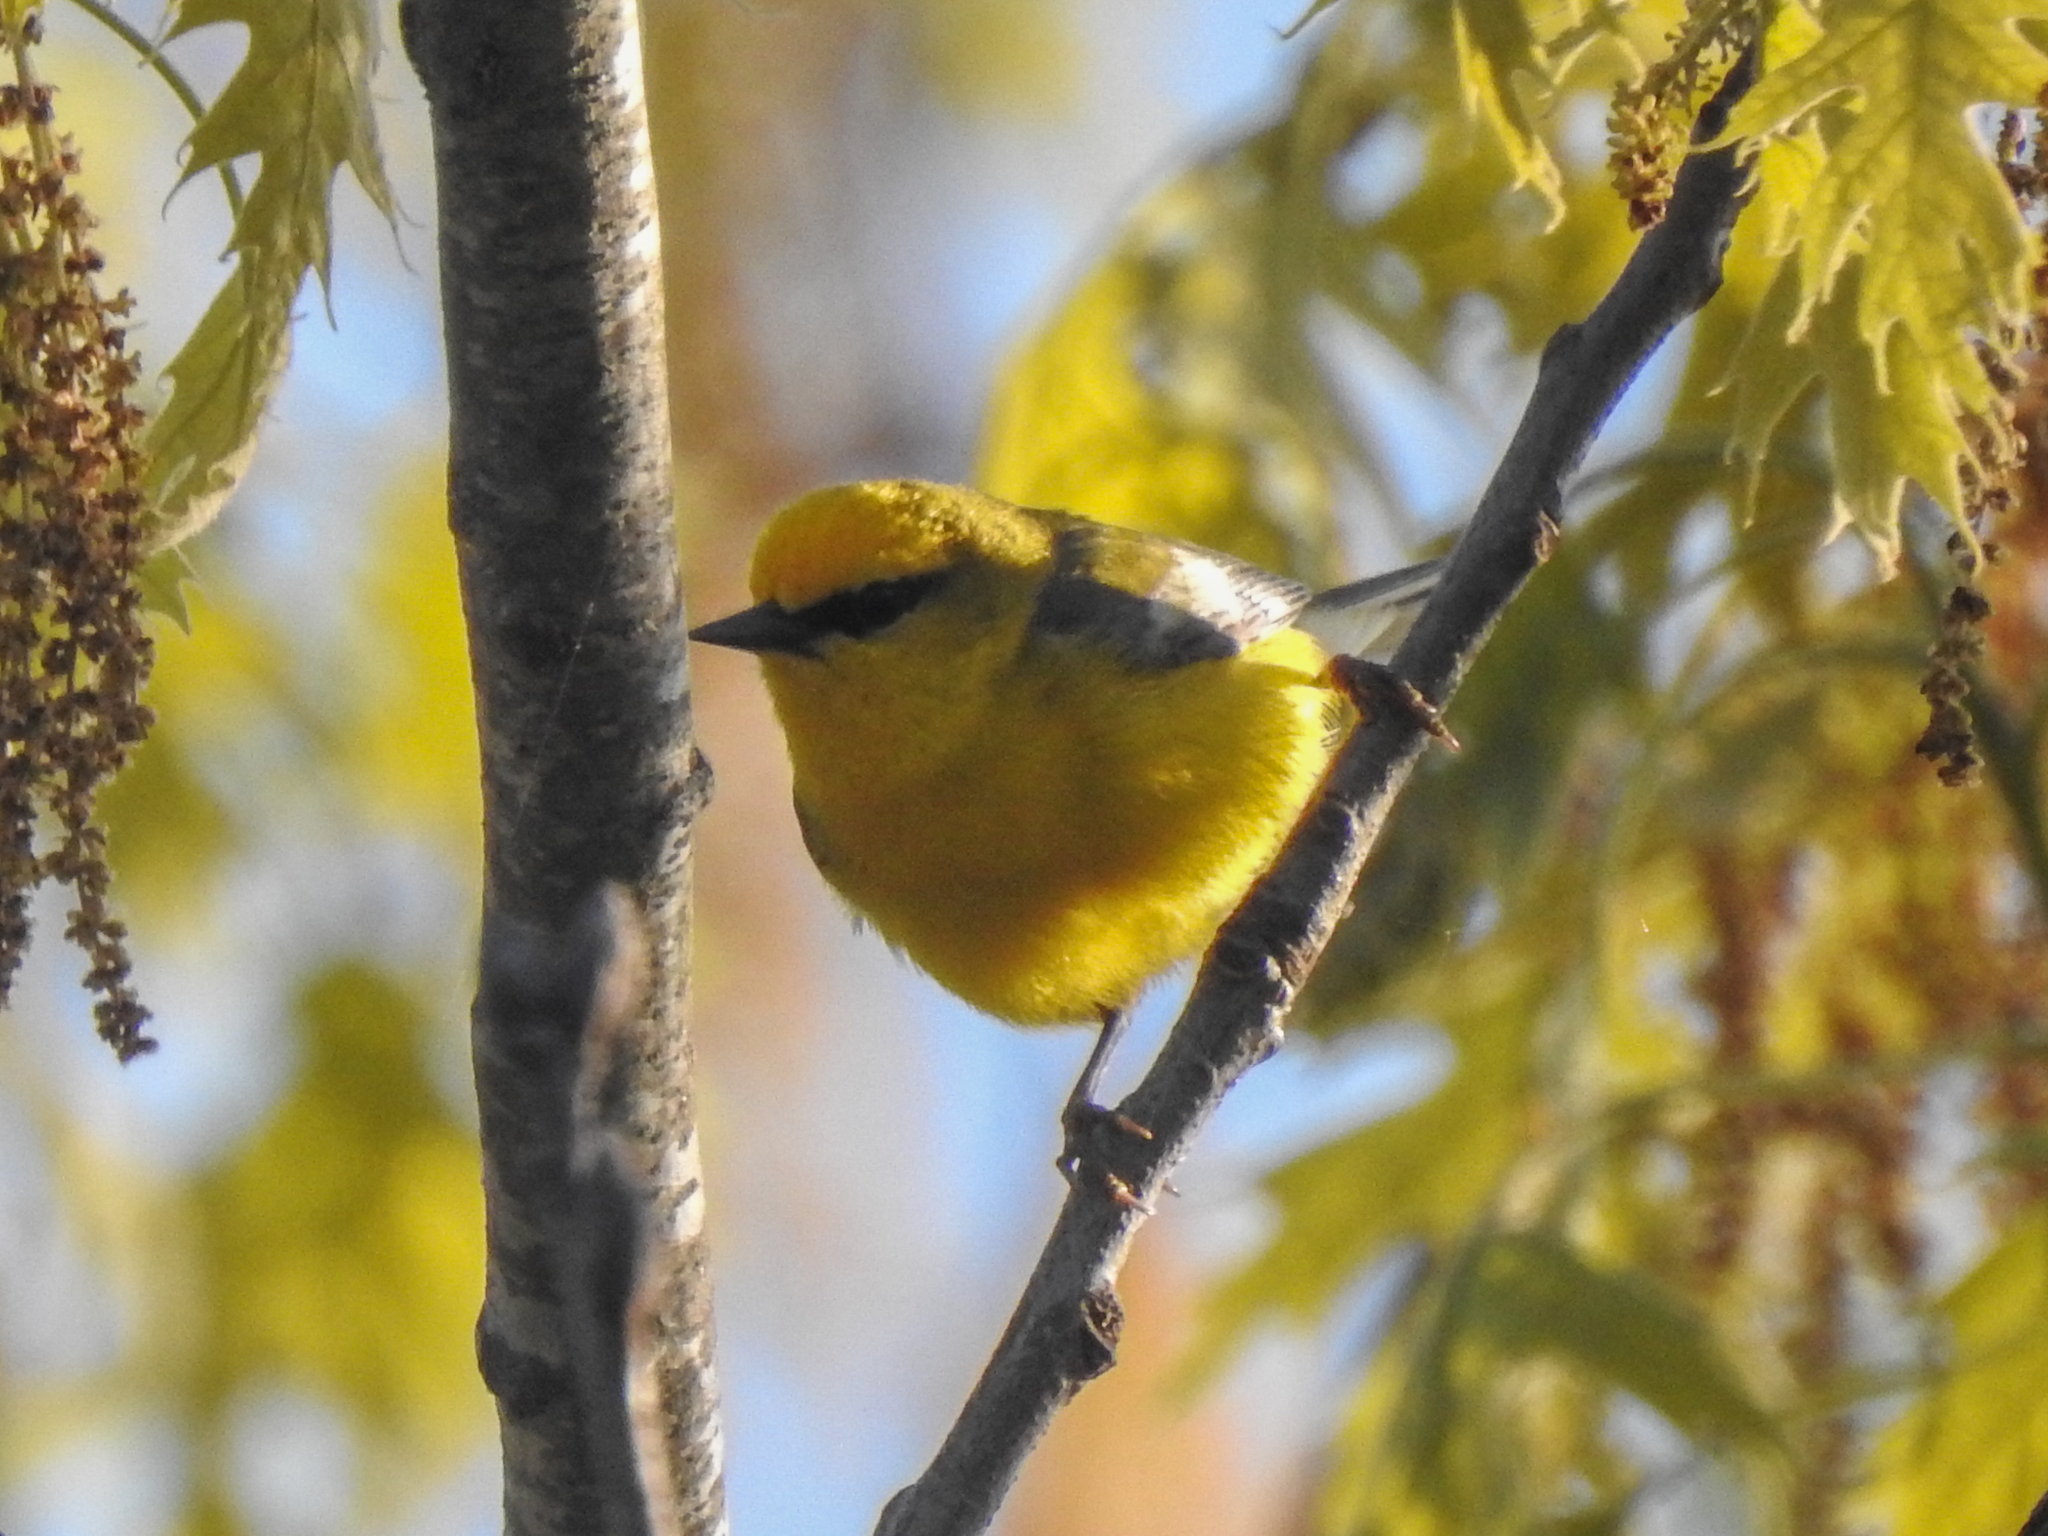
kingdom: Animalia
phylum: Chordata
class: Aves
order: Passeriformes
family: Parulidae
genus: Vermivora
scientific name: Vermivora cyanoptera
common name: Blue-winged warbler
